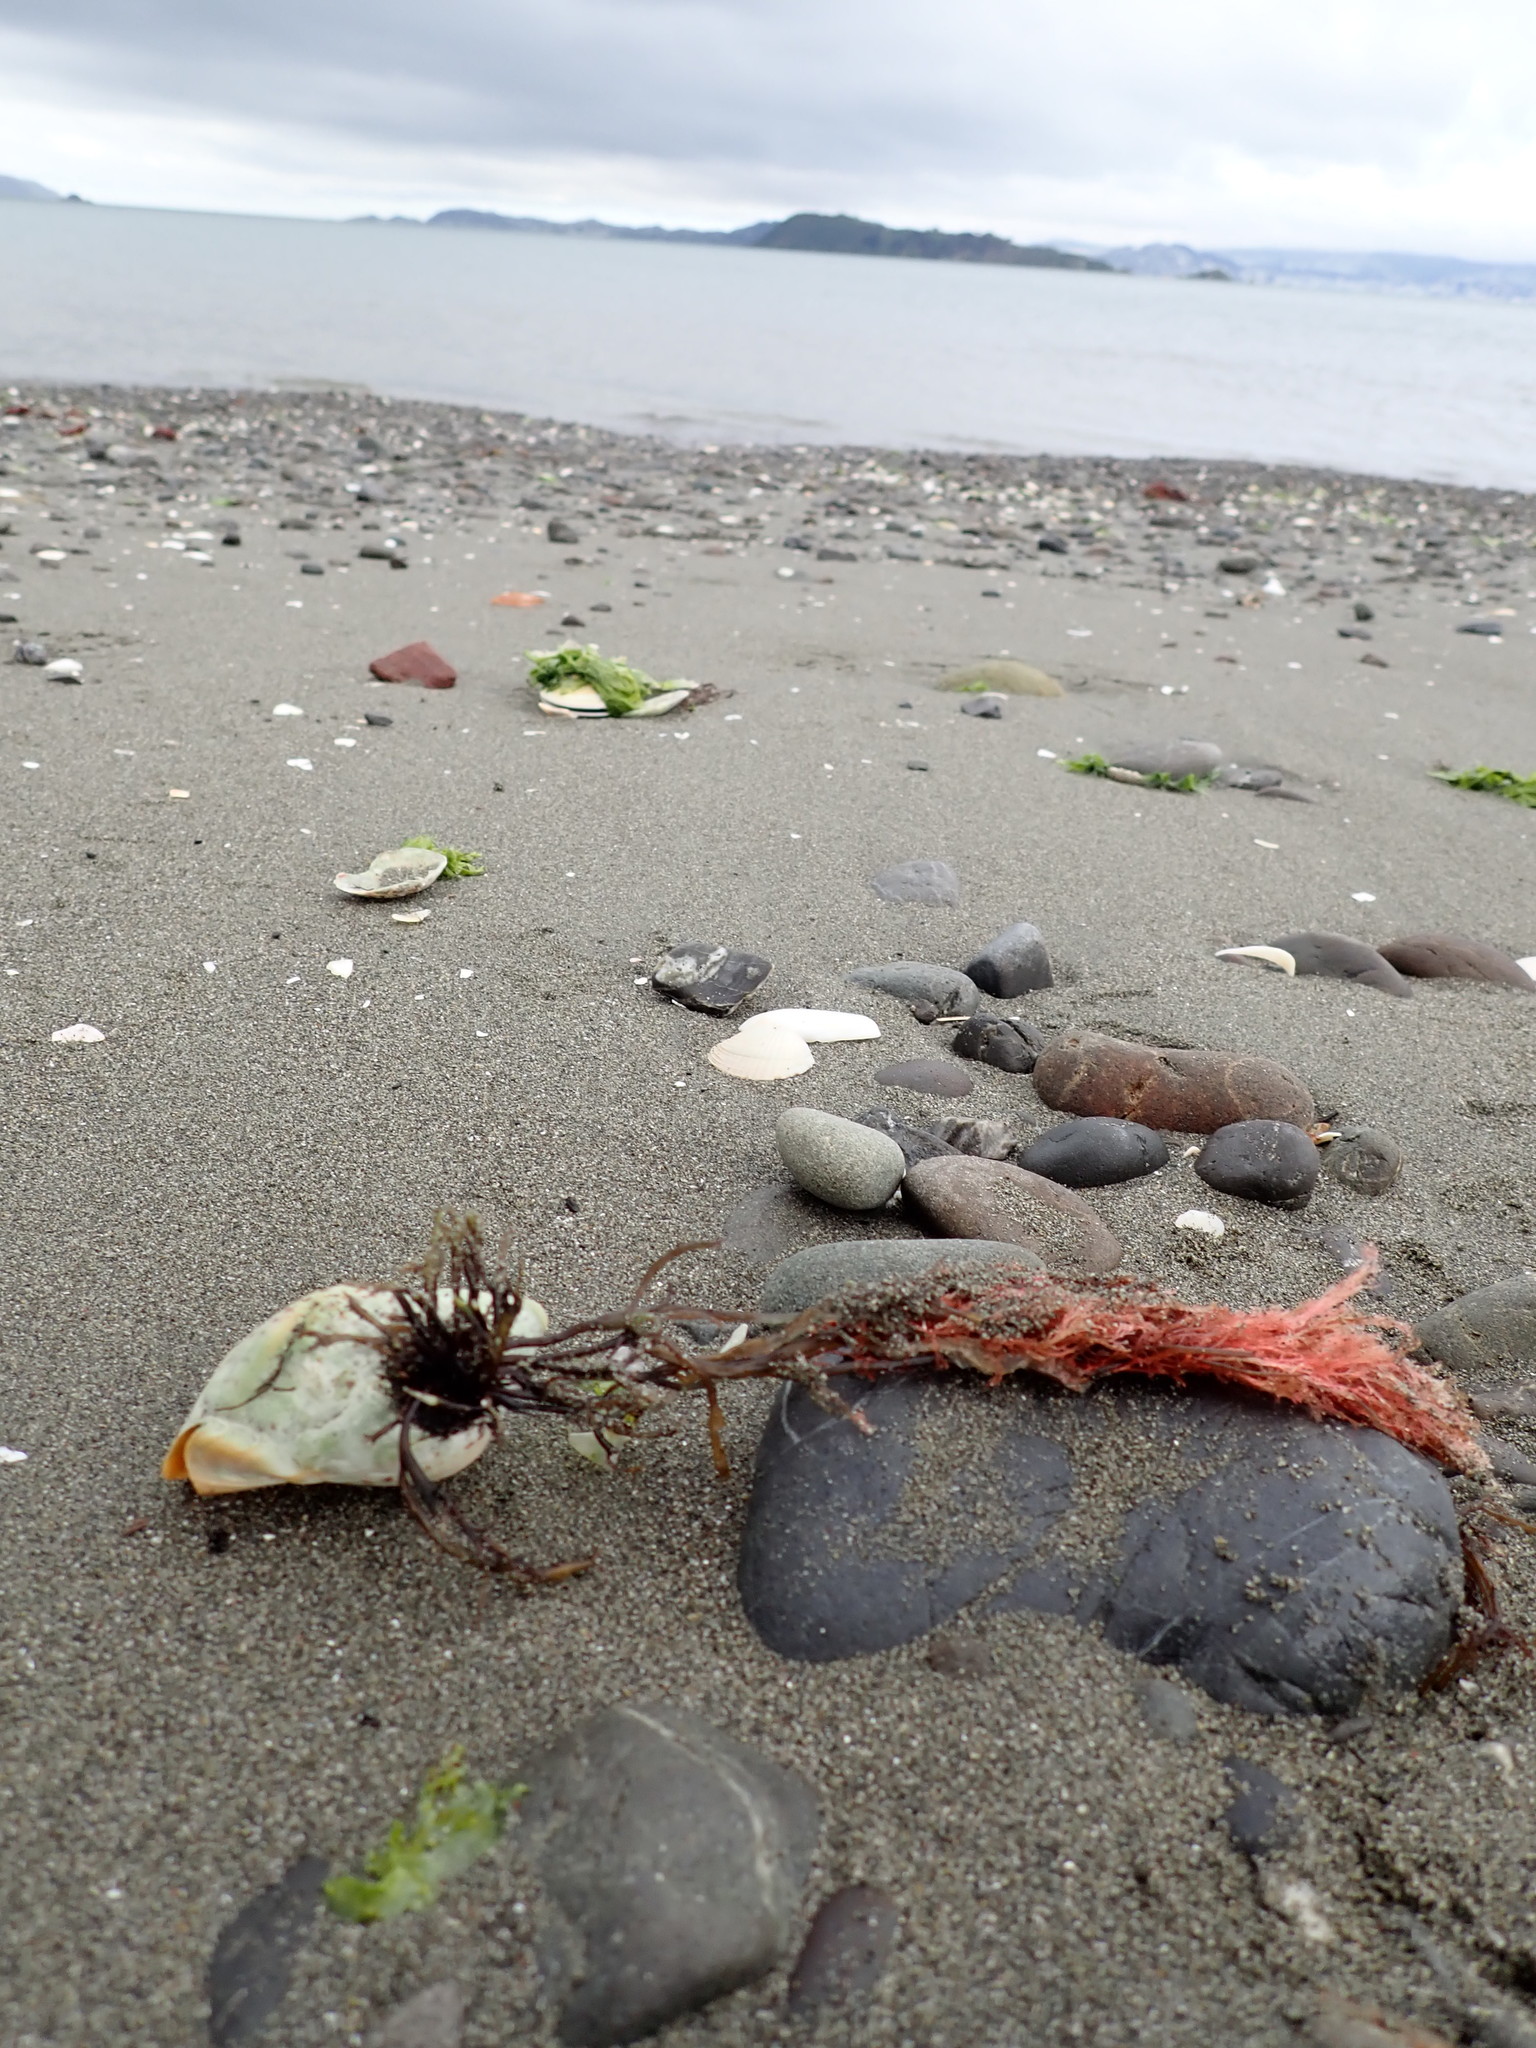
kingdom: Animalia
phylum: Mollusca
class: Gastropoda
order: Neogastropoda
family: Cominellidae
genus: Cominella
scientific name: Cominella adspersa
